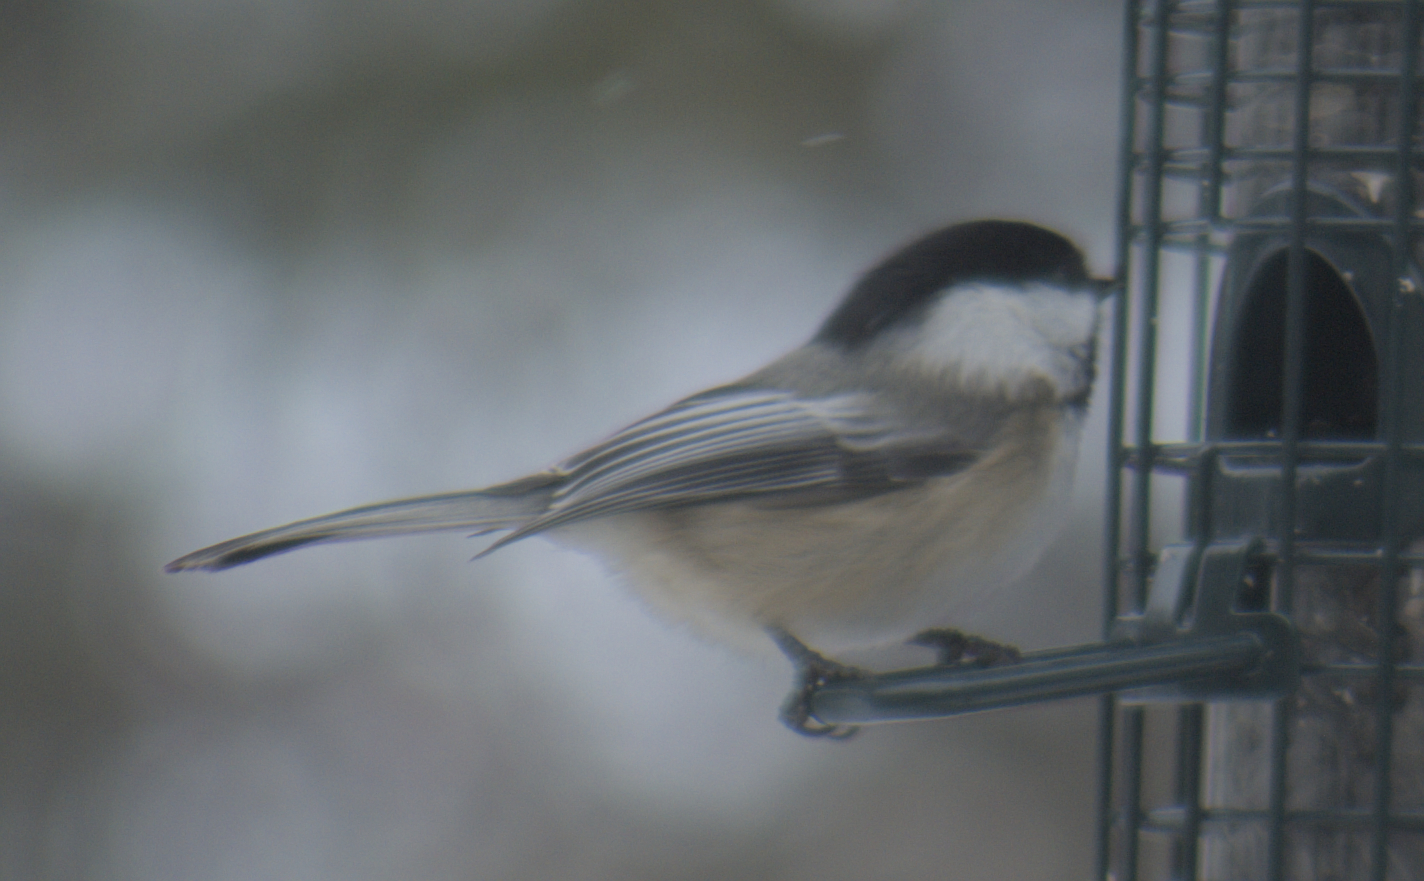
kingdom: Animalia
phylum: Chordata
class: Aves
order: Passeriformes
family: Paridae
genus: Poecile
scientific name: Poecile atricapillus
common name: Black-capped chickadee
